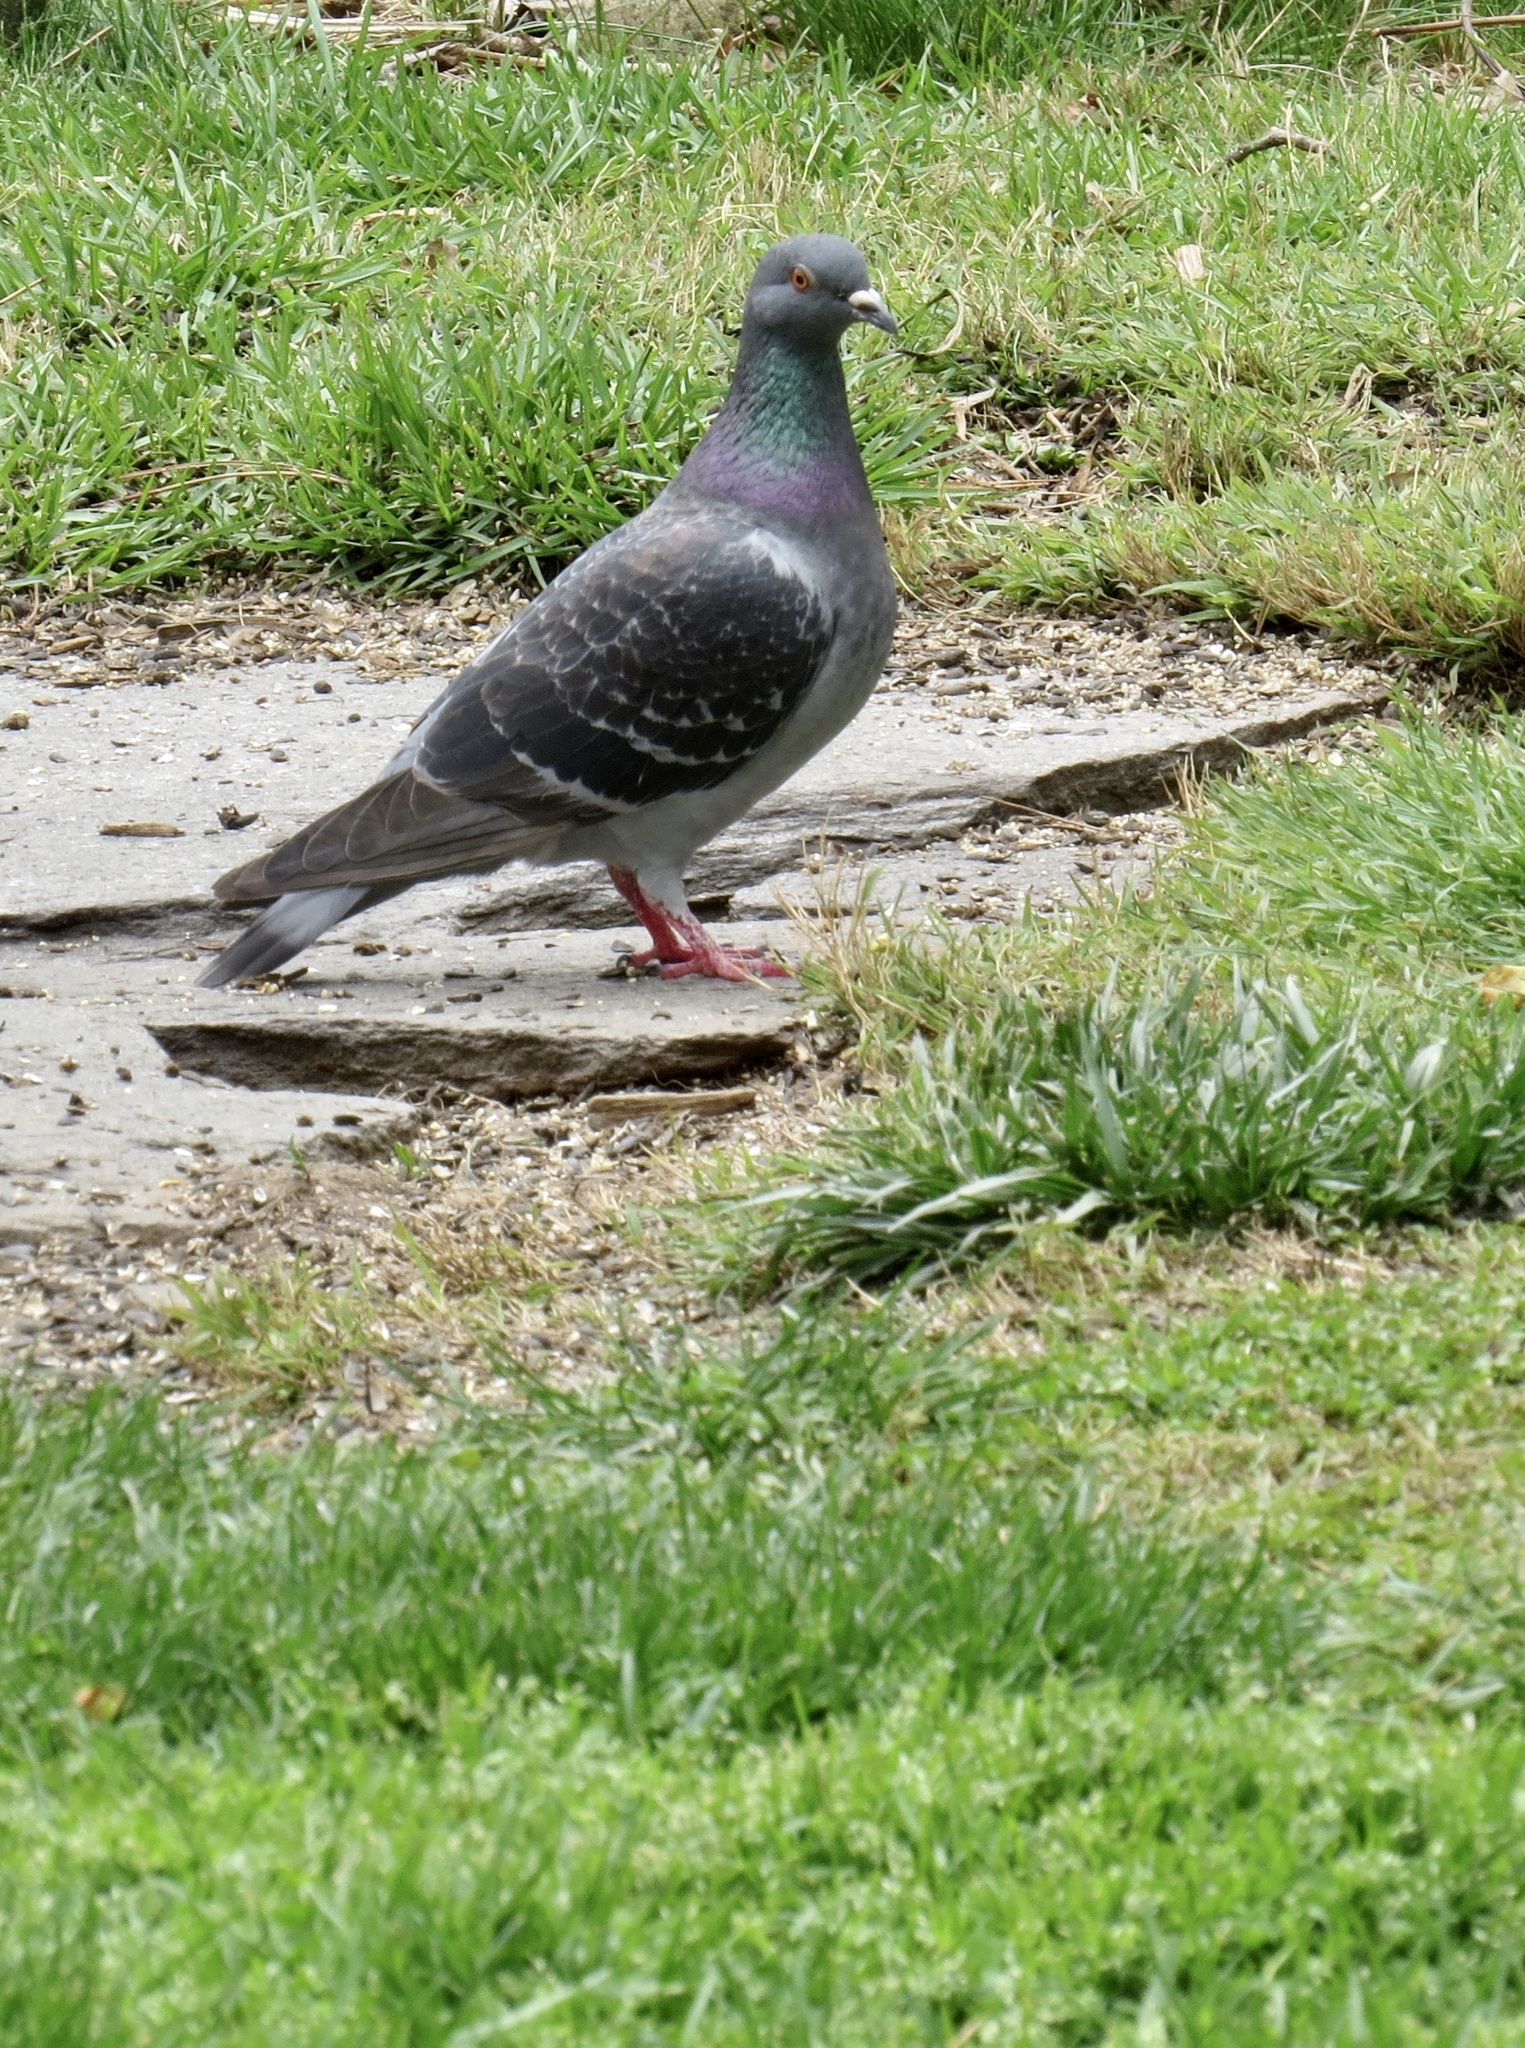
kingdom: Animalia
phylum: Chordata
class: Aves
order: Columbiformes
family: Columbidae
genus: Columba
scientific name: Columba livia
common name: Rock pigeon
